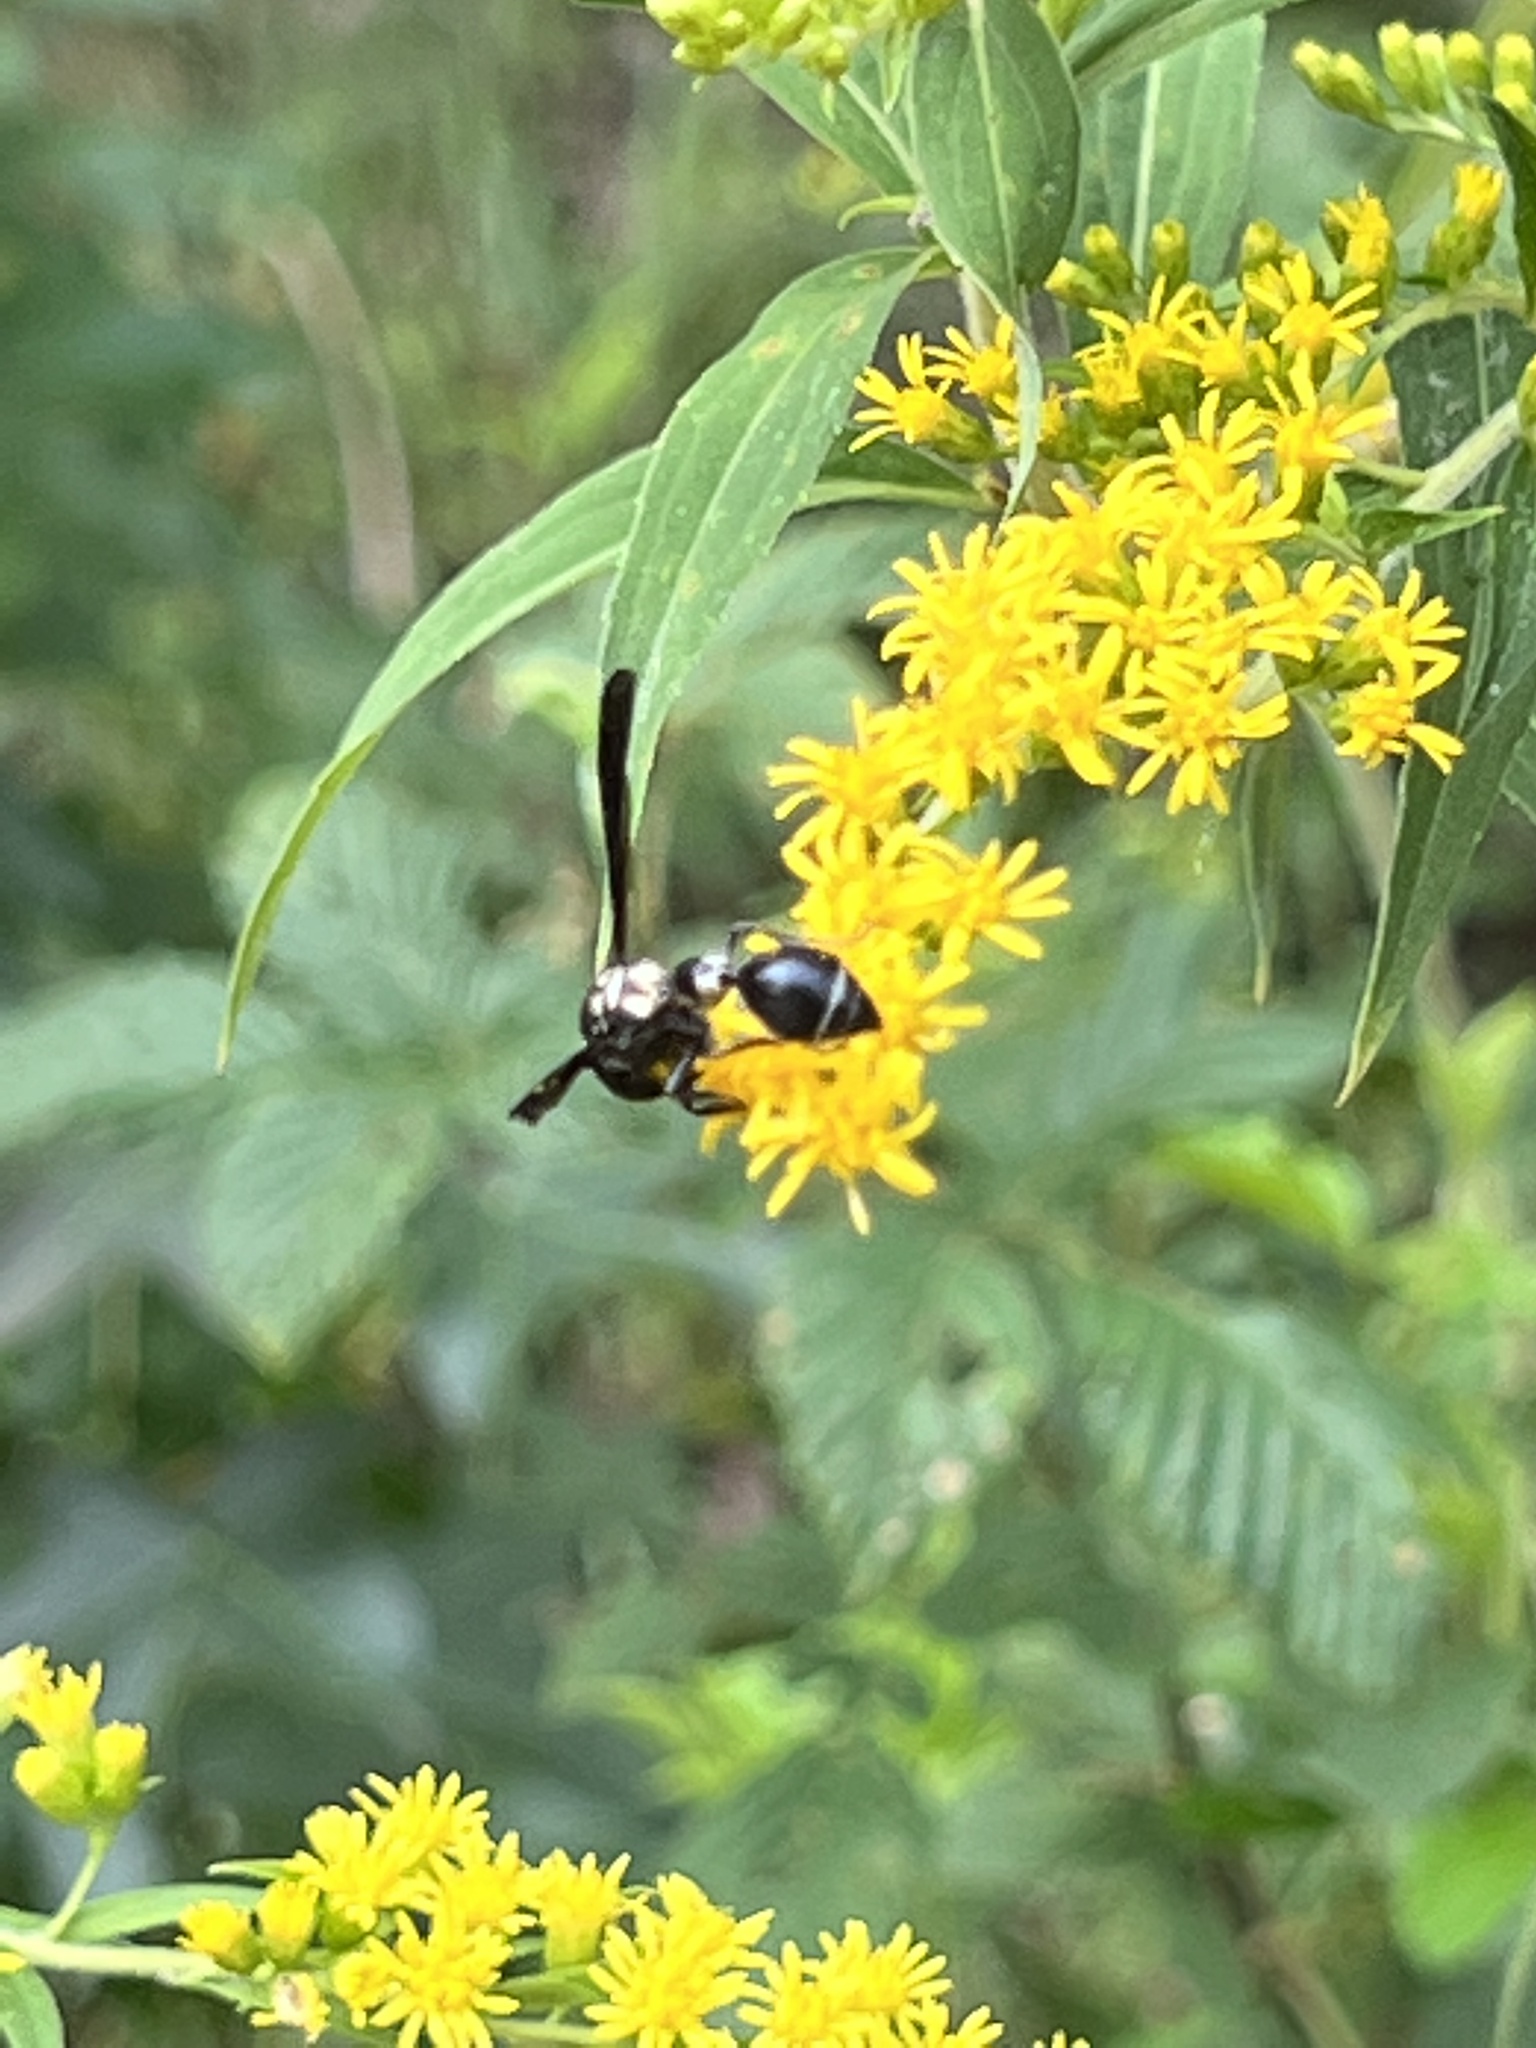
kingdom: Animalia
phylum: Arthropoda
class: Insecta
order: Hymenoptera
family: Eumenidae
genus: Zethus
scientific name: Zethus spinipes
